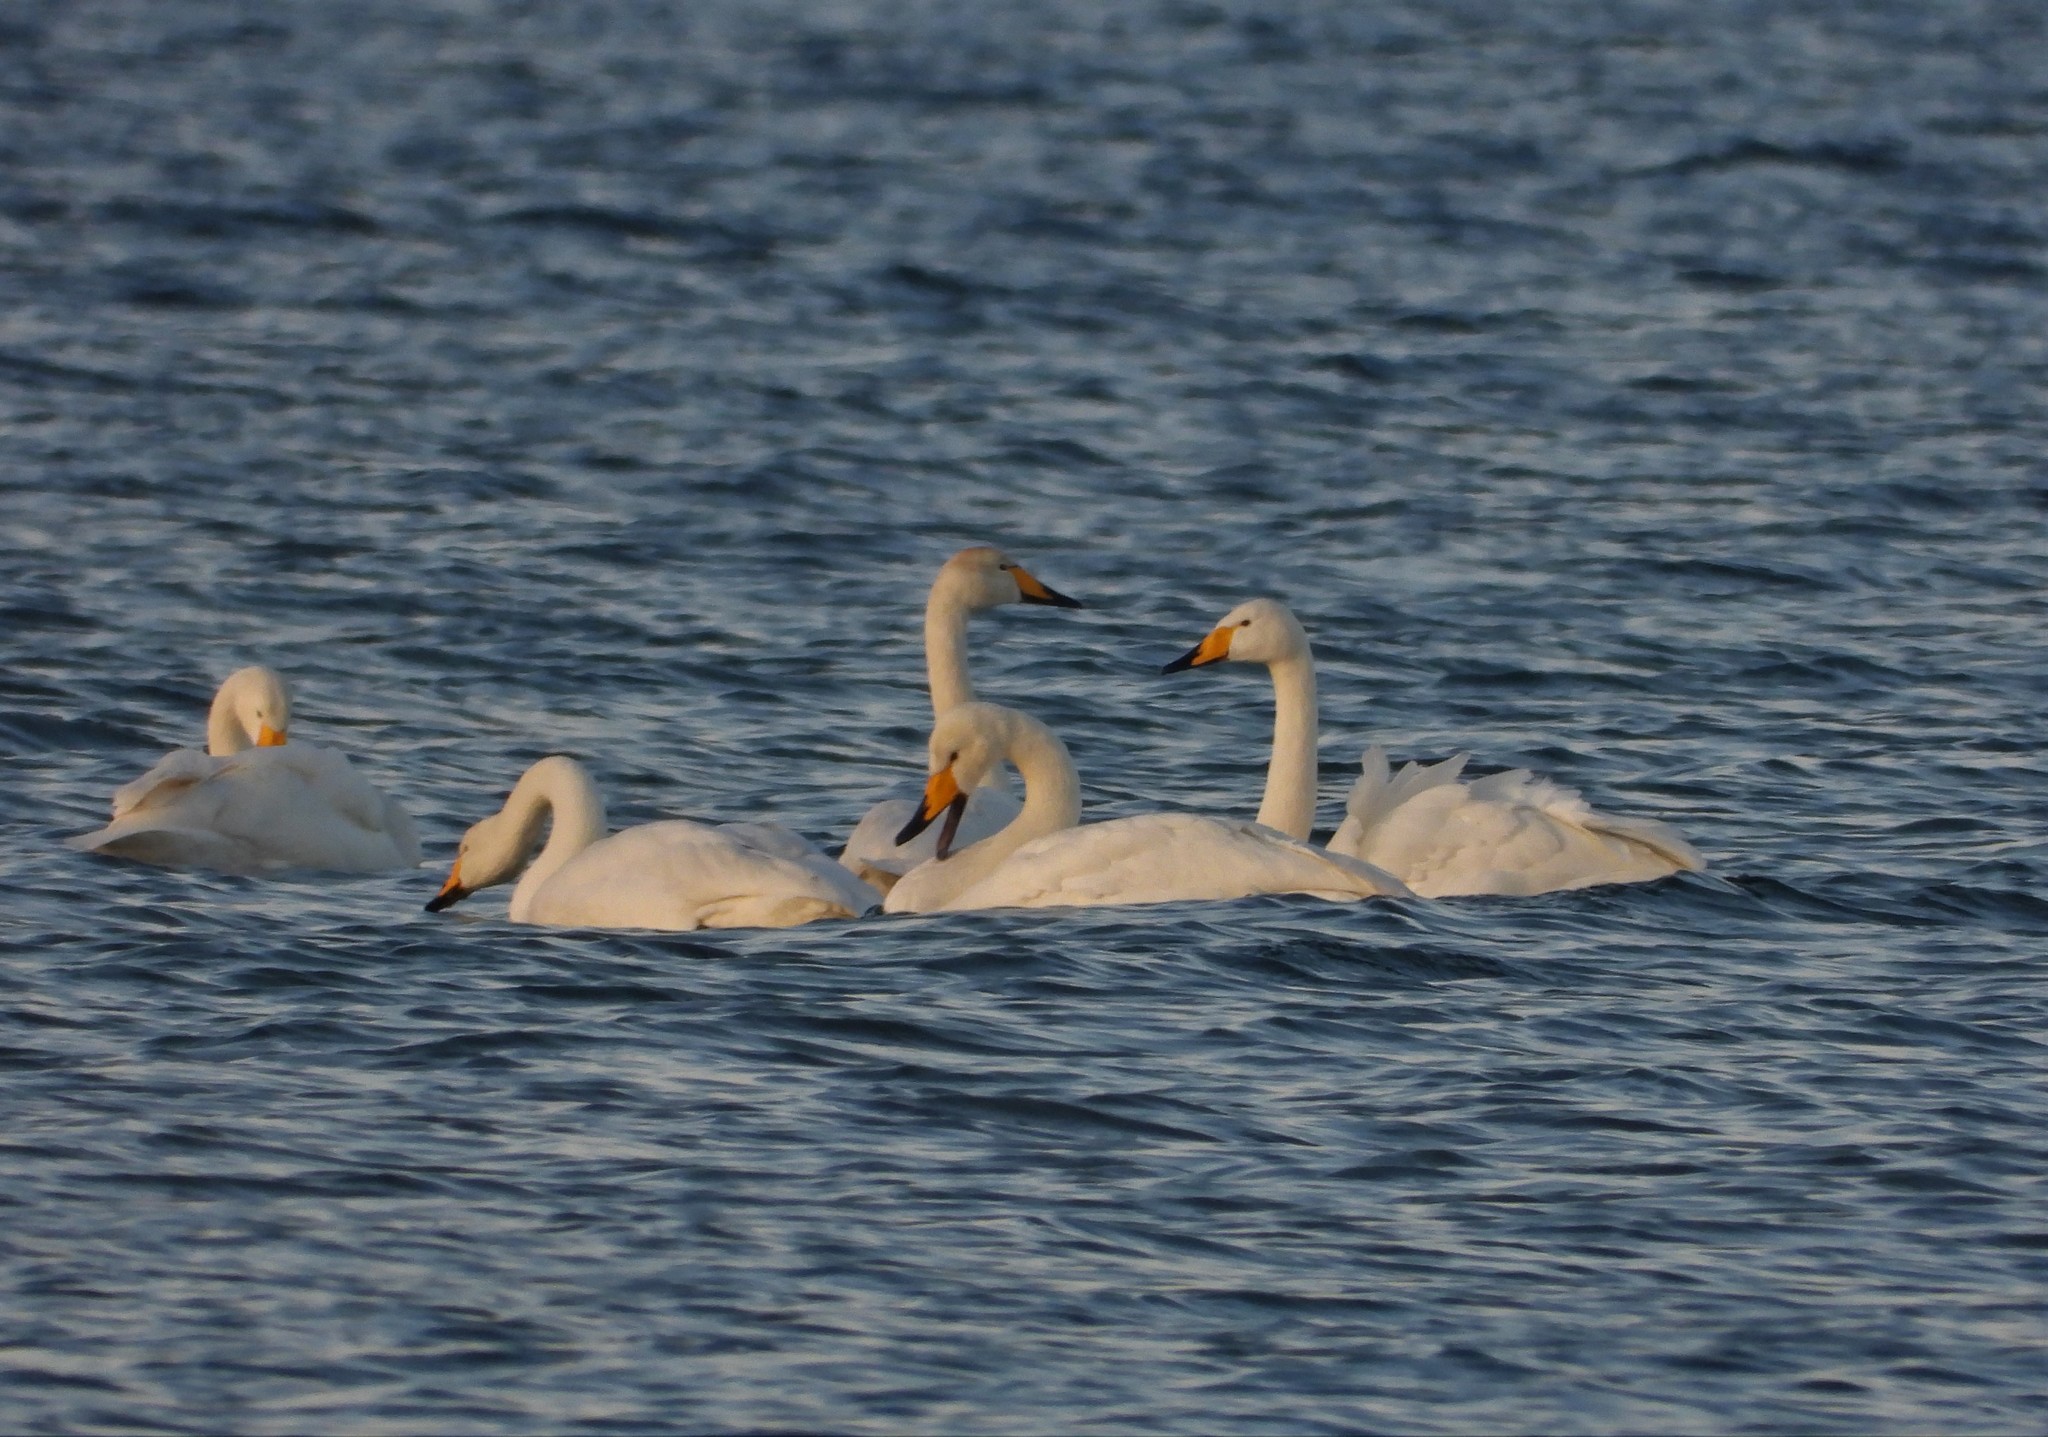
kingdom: Animalia
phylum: Chordata
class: Aves
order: Anseriformes
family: Anatidae
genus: Cygnus
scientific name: Cygnus cygnus
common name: Whooper swan
